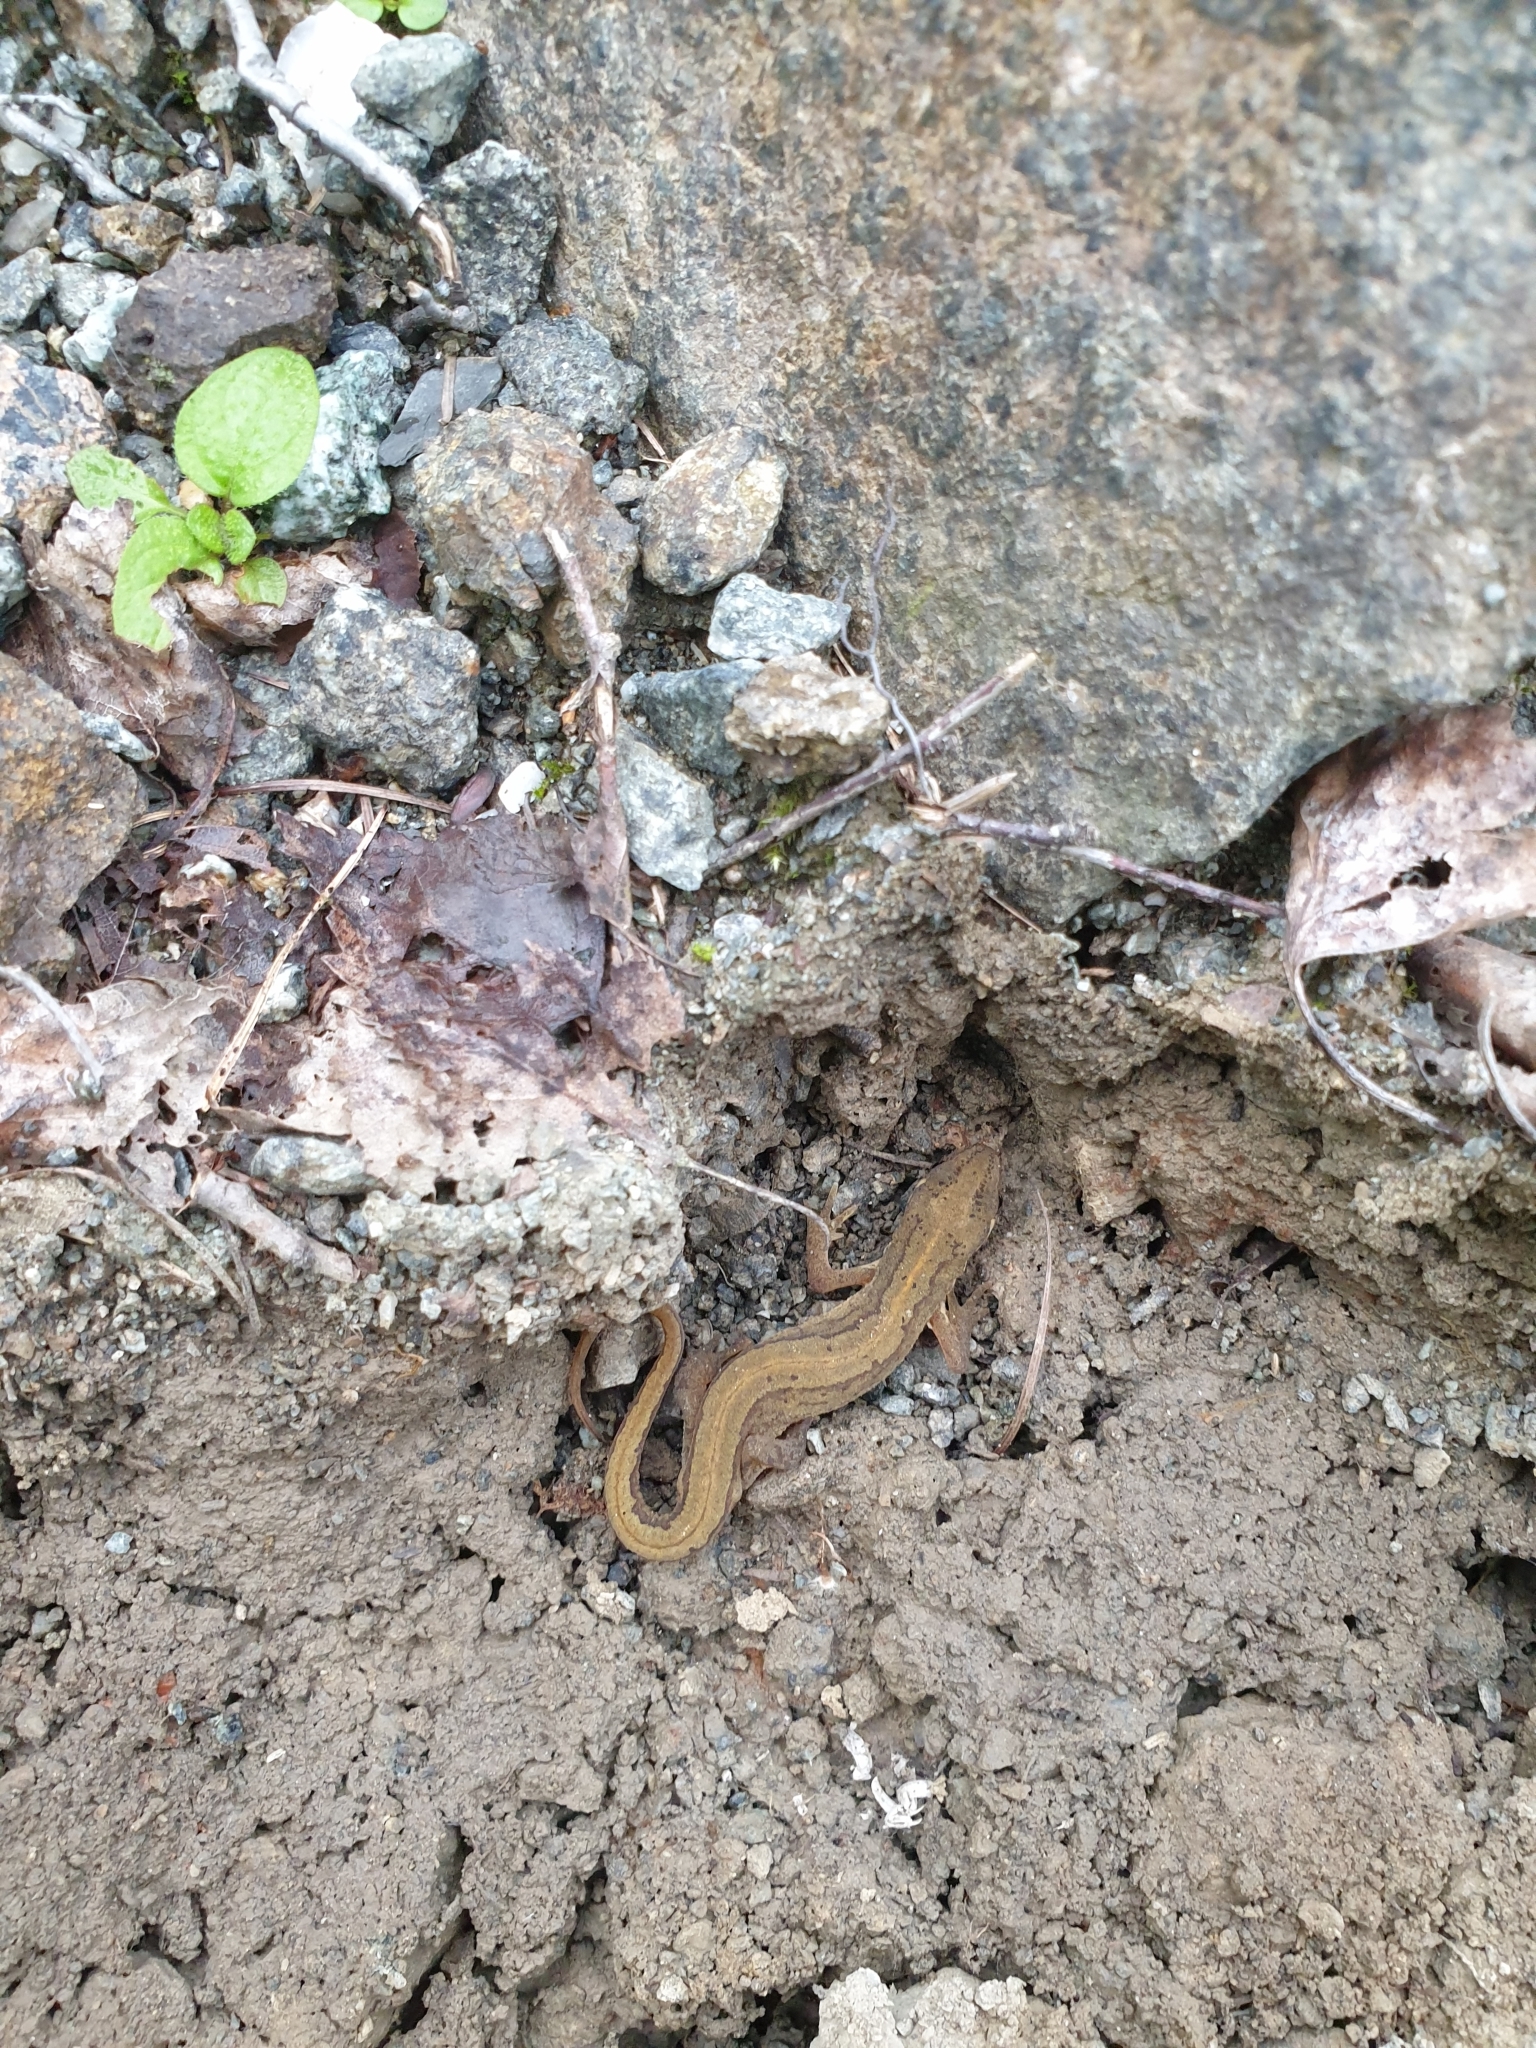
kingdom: Animalia
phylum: Chordata
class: Amphibia
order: Caudata
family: Salamandridae
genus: Lissotriton
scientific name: Lissotriton vulgaris
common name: Smooth newt
